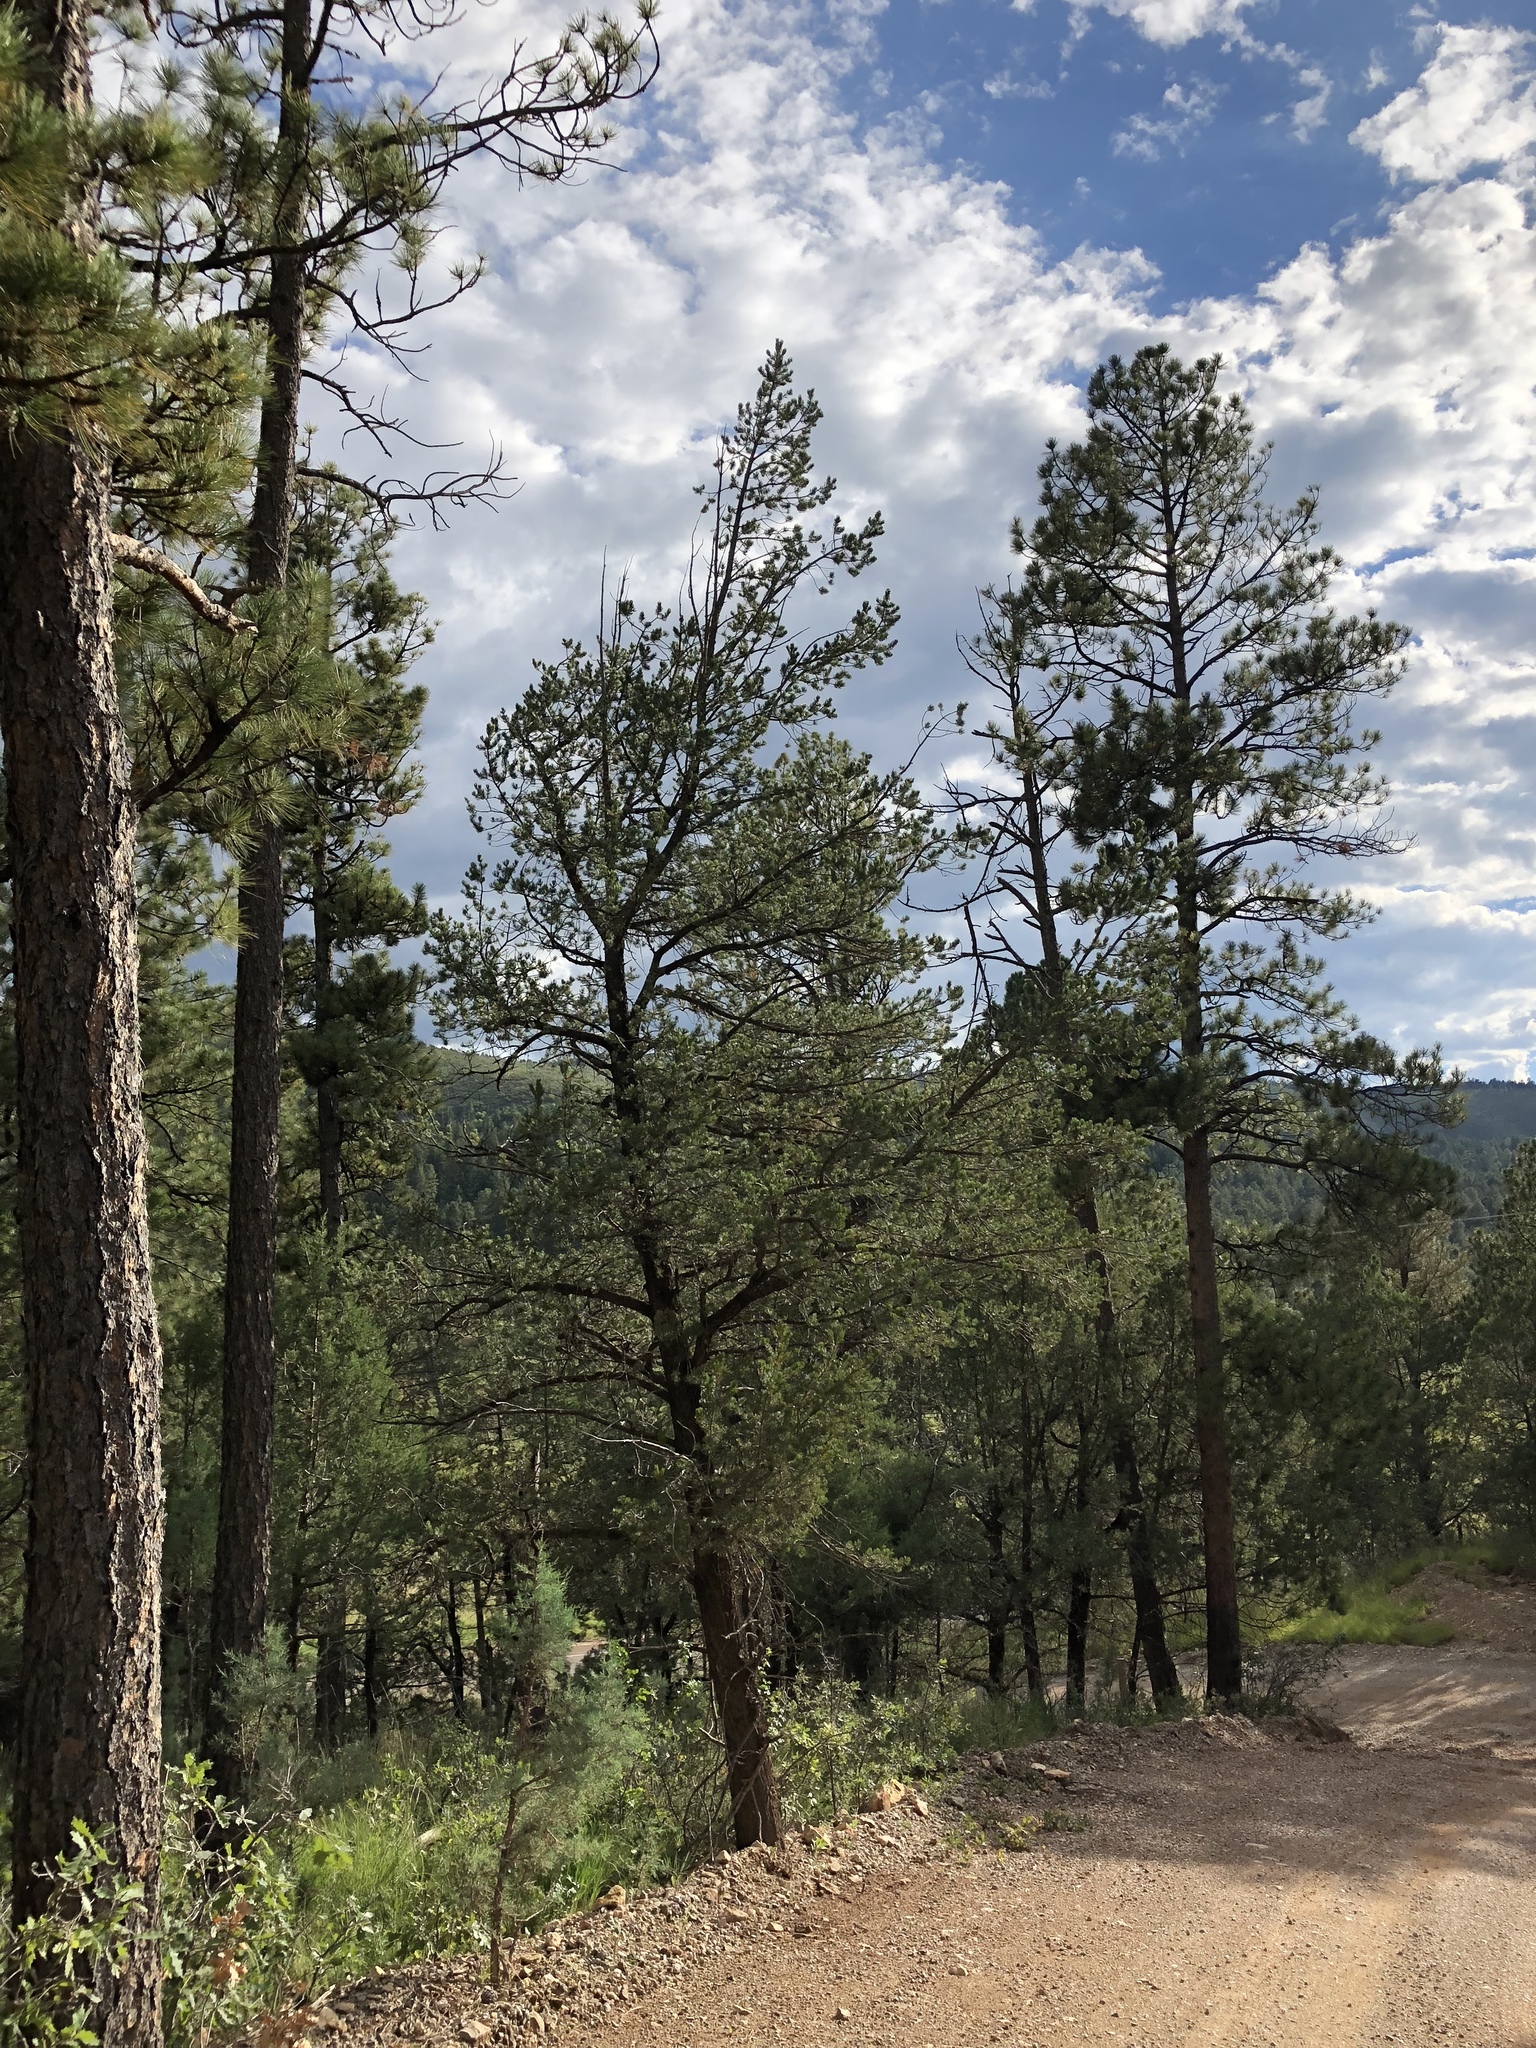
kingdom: Plantae
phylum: Tracheophyta
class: Pinopsida
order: Pinales
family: Pinaceae
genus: Pinus
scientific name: Pinus edulis
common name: Colorado pinyon
